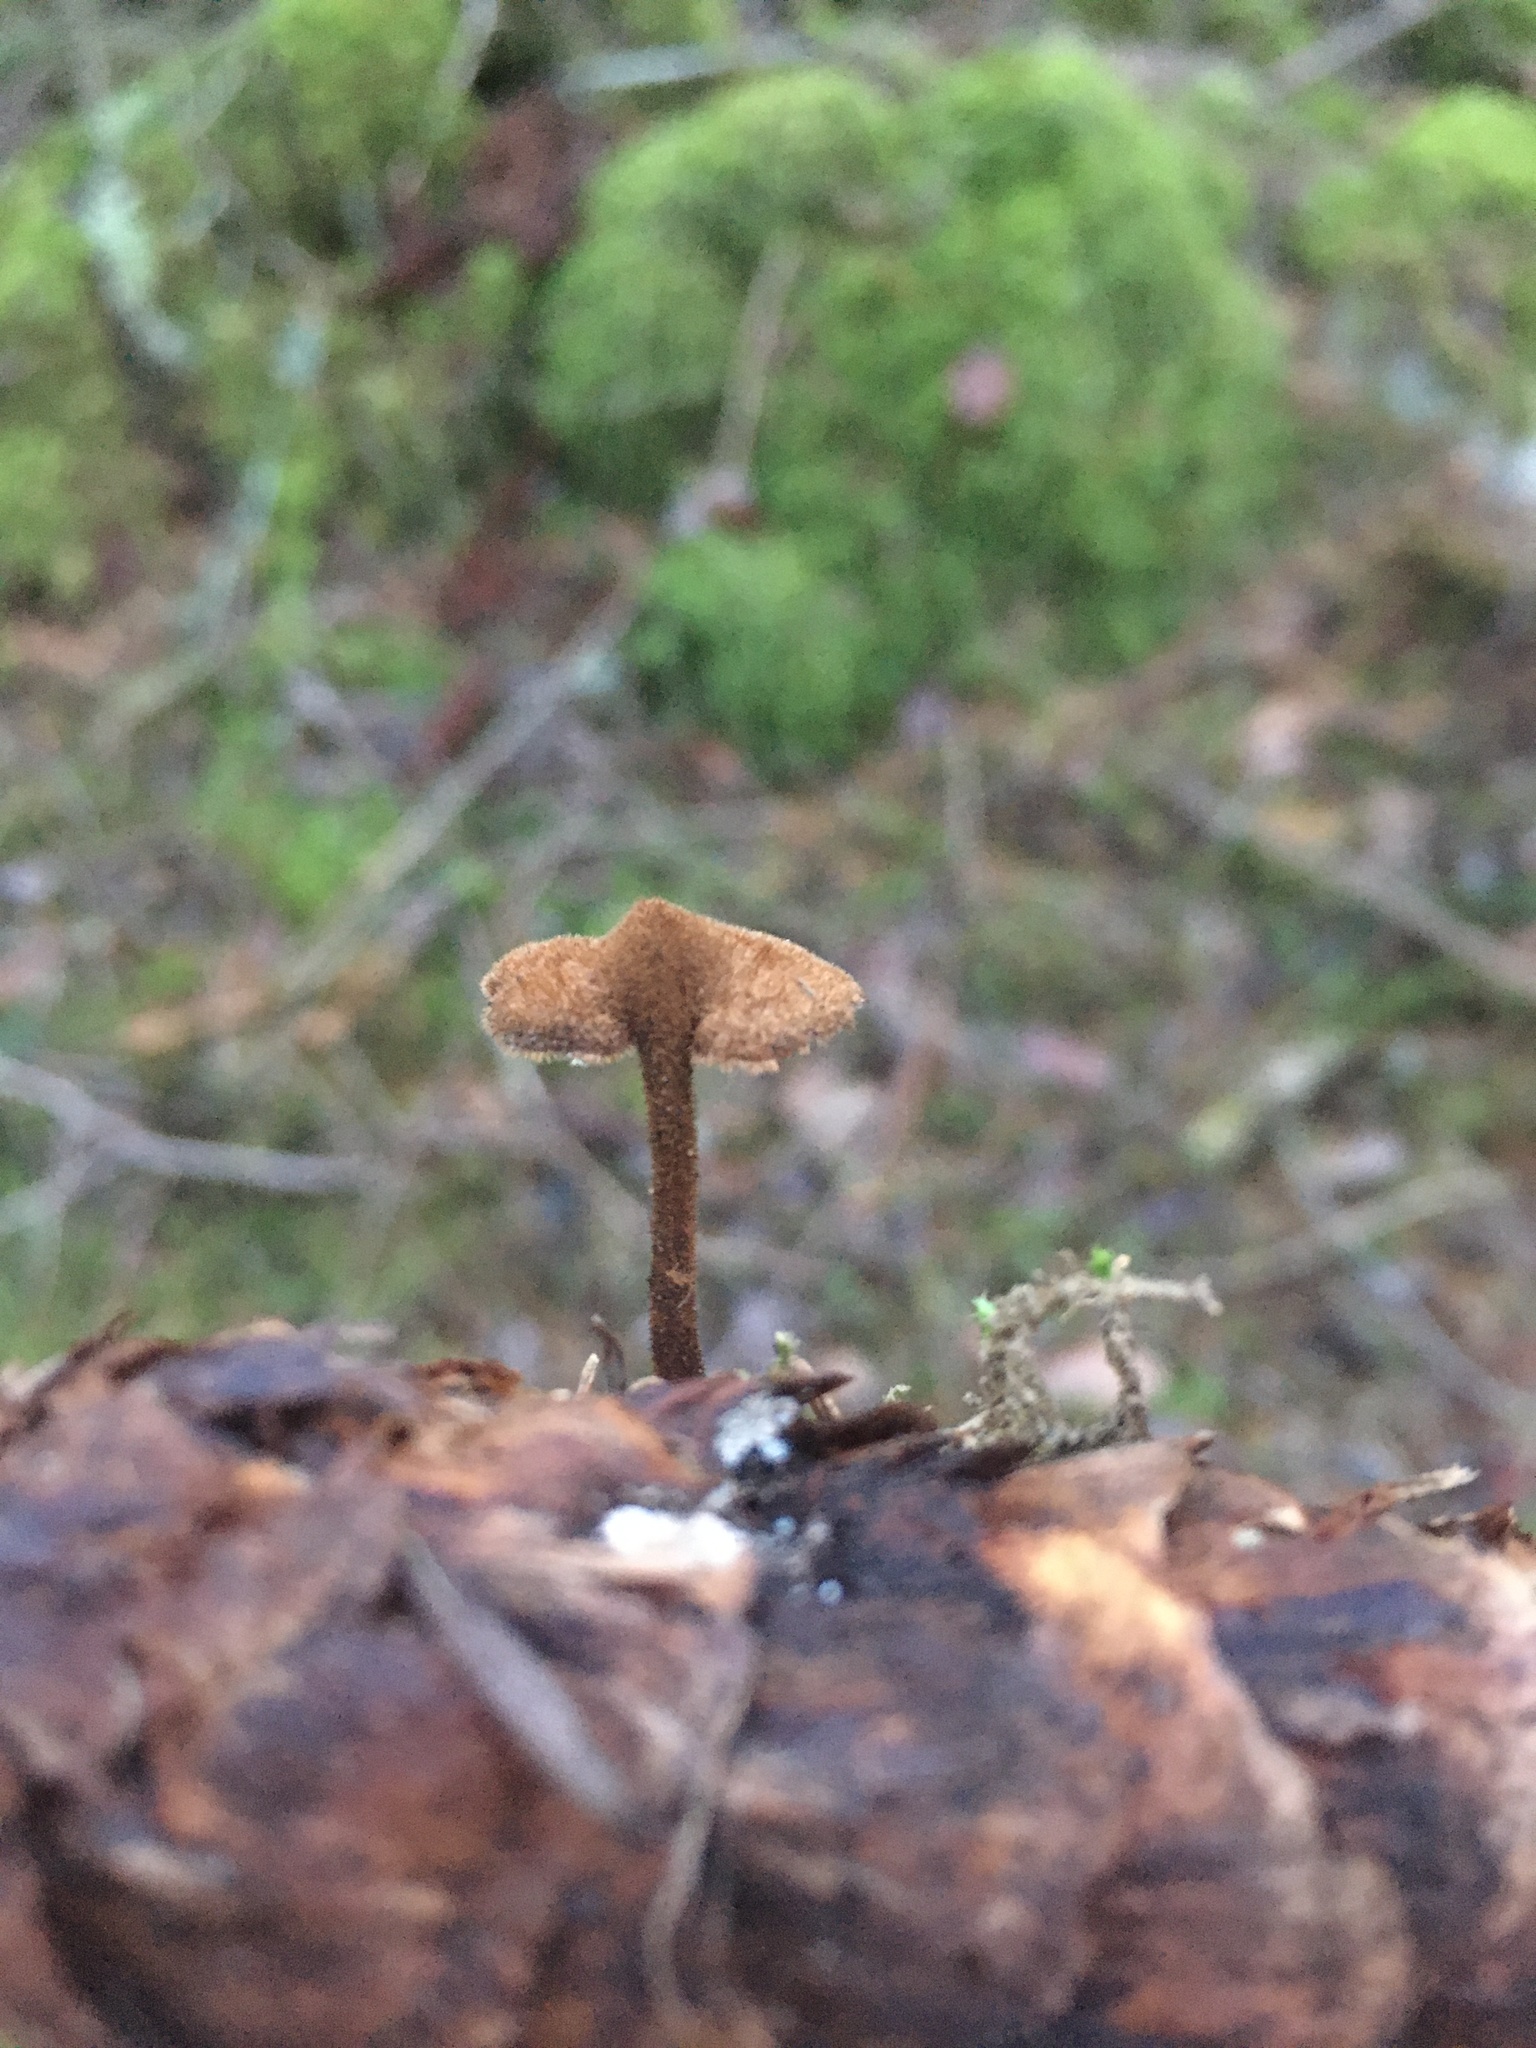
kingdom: Fungi
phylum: Basidiomycota
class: Agaricomycetes
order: Russulales
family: Auriscalpiaceae
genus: Auriscalpium
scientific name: Auriscalpium vulgare
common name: Earpick fungus
